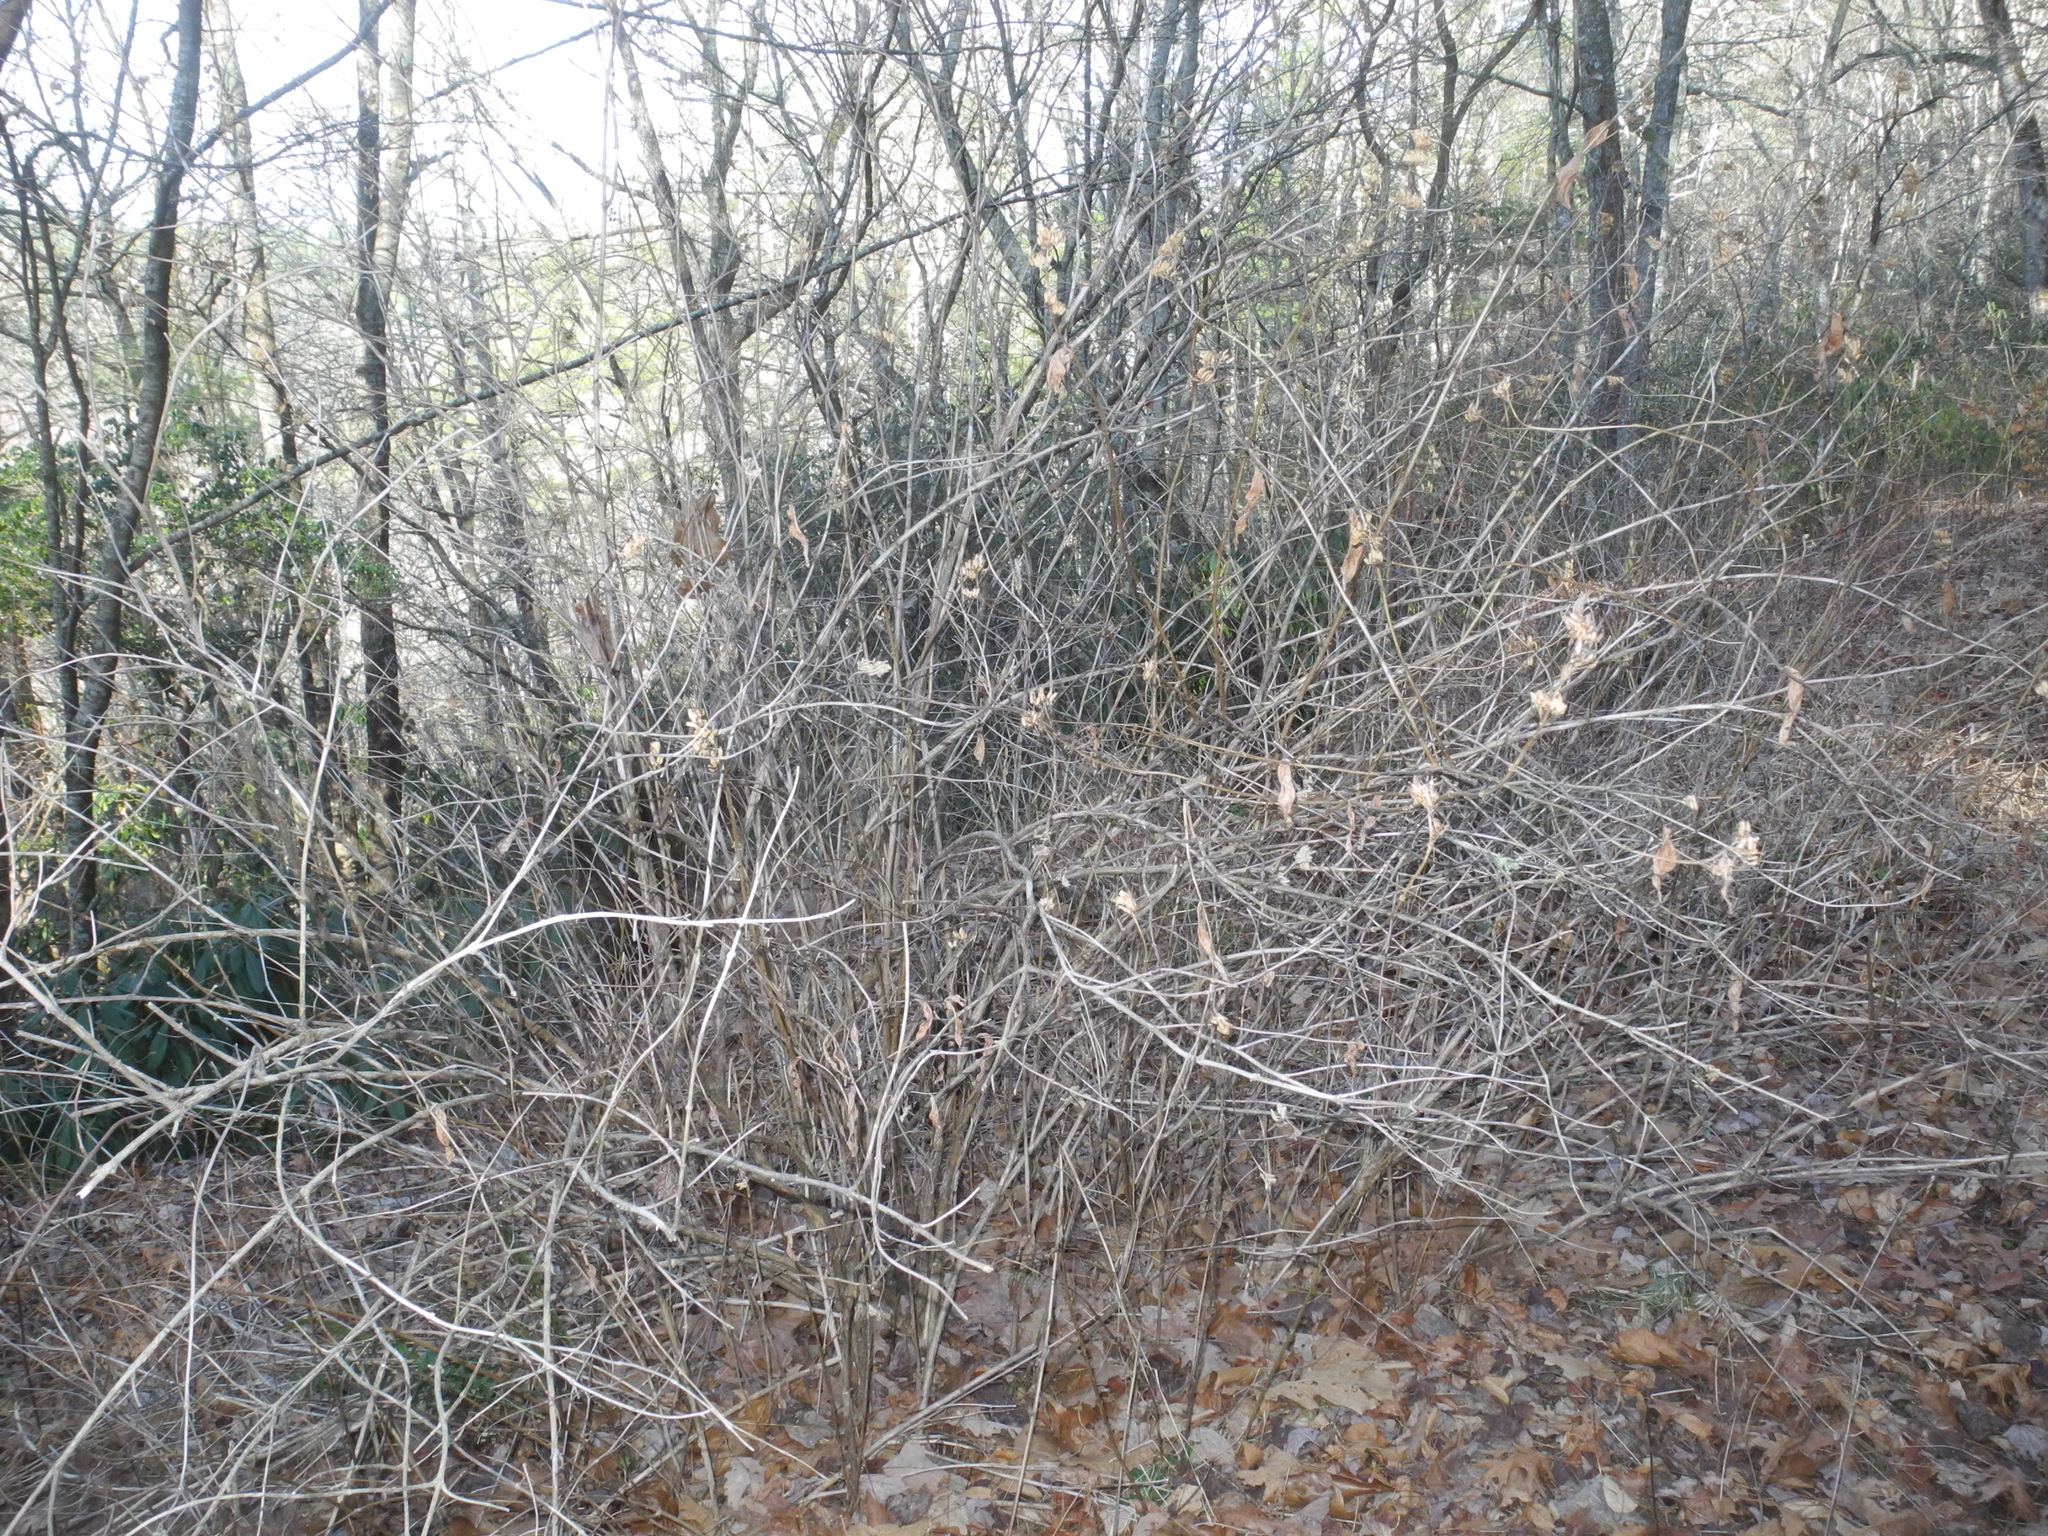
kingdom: Plantae
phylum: Tracheophyta
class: Magnoliopsida
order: Dipsacales
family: Caprifoliaceae
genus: Diervilla
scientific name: Diervilla sessilifolia
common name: Bush-honeysuckle
